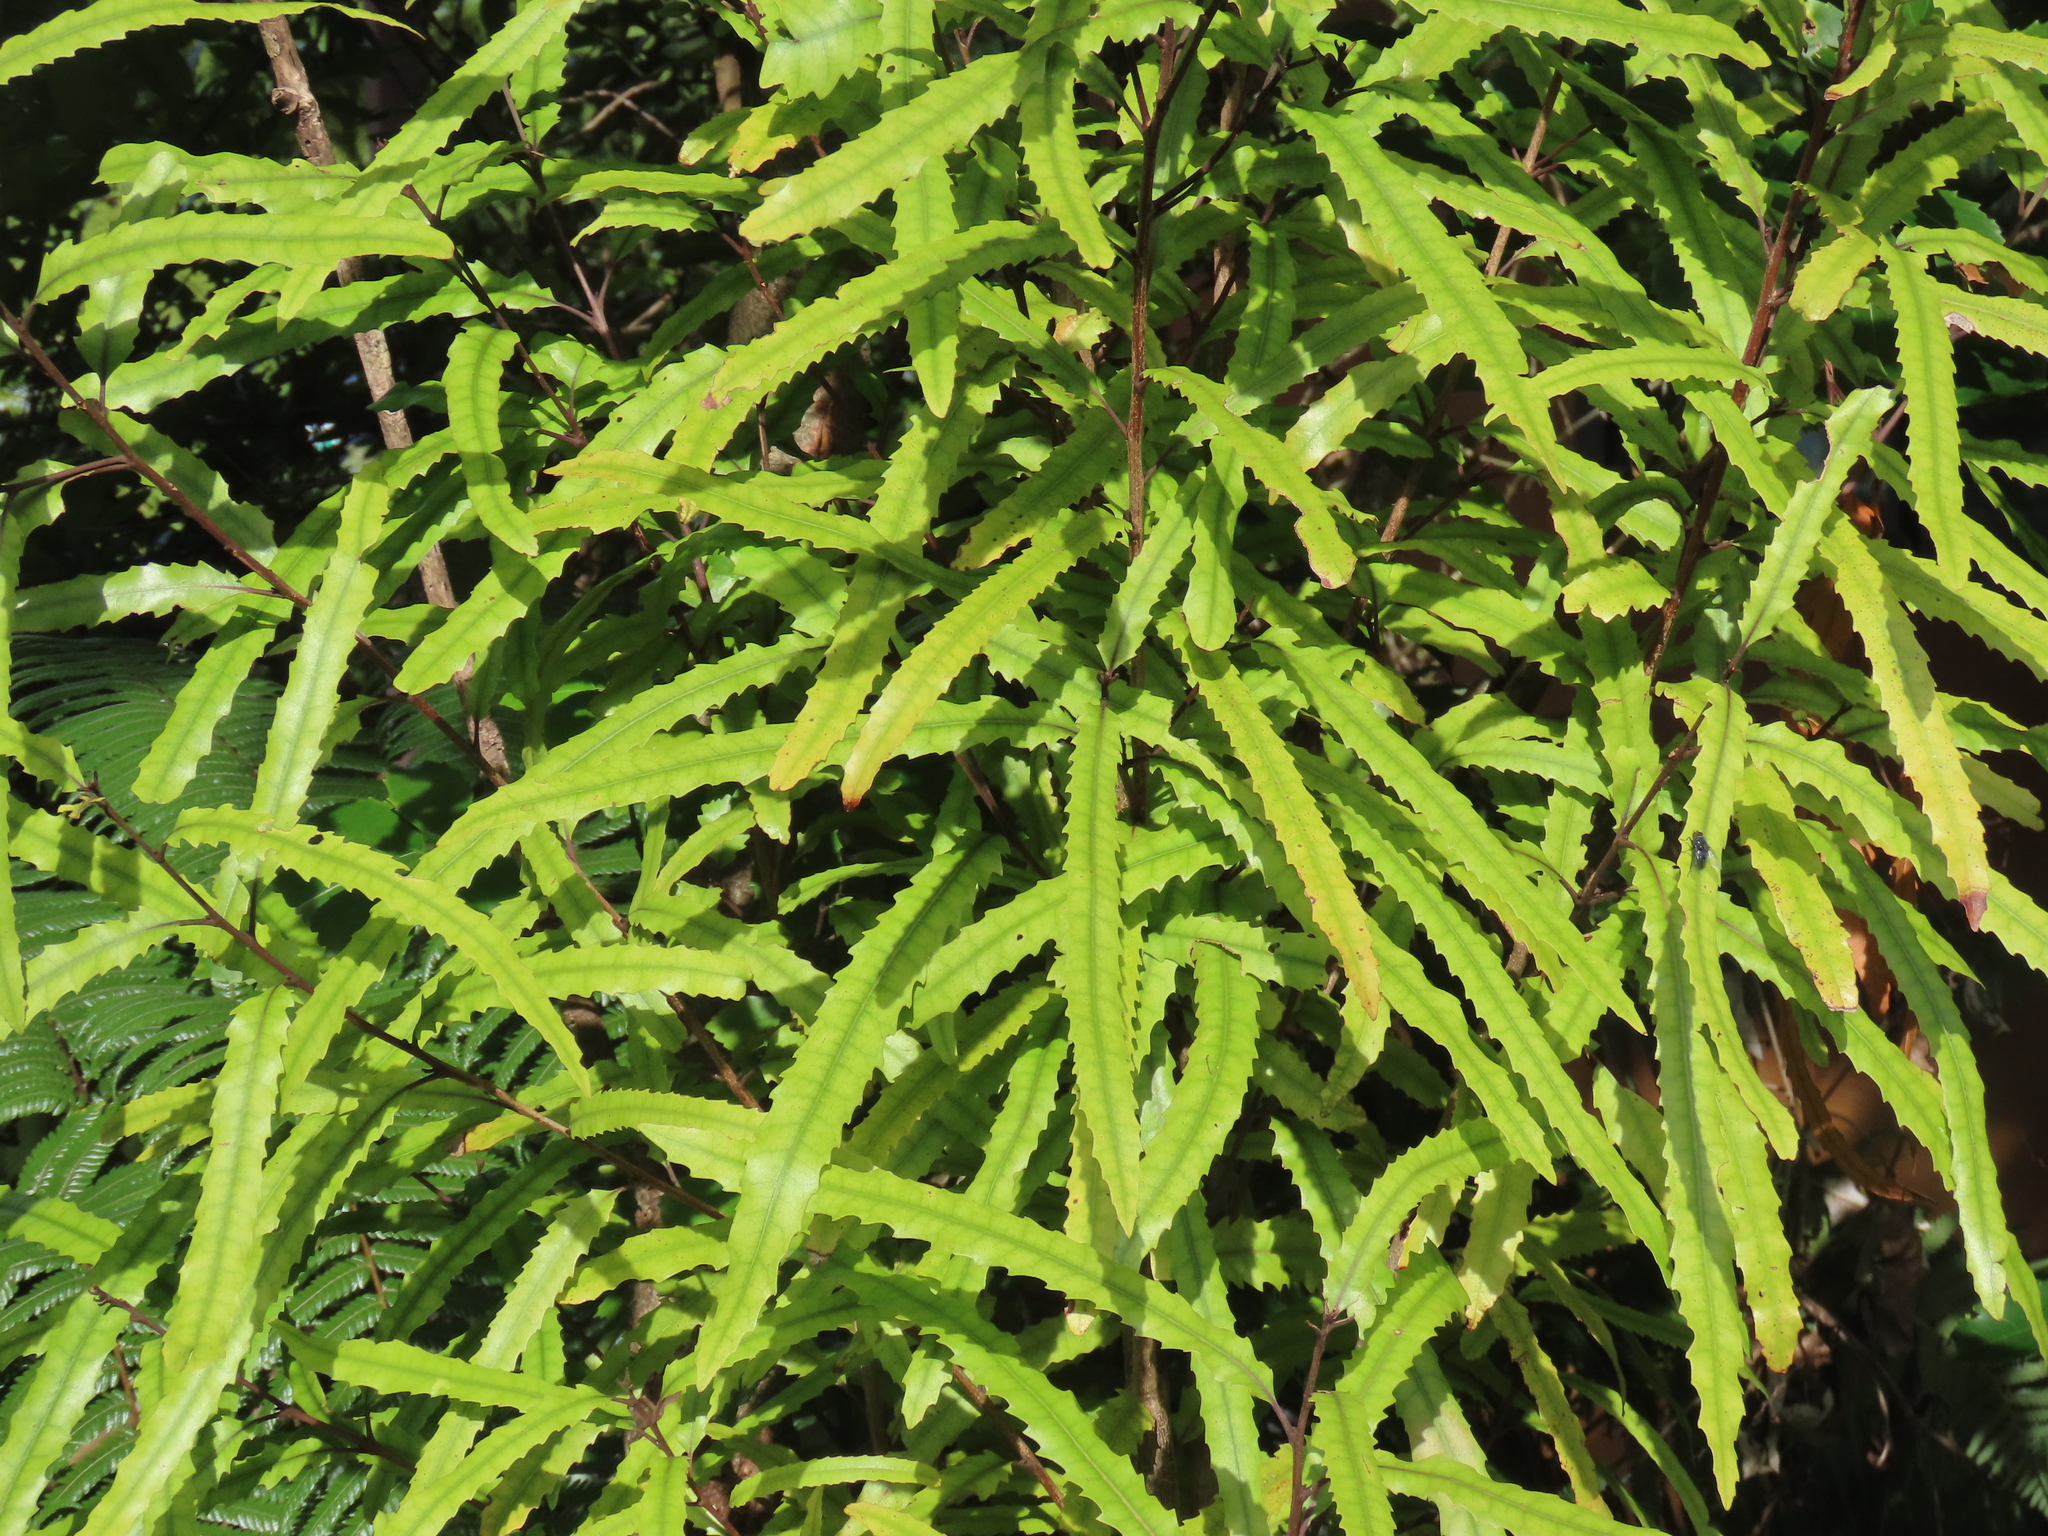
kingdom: Plantae
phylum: Tracheophyta
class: Magnoliopsida
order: Proteales
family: Proteaceae
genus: Knightia
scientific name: Knightia excelsa
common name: New zealand-honeysuckle
